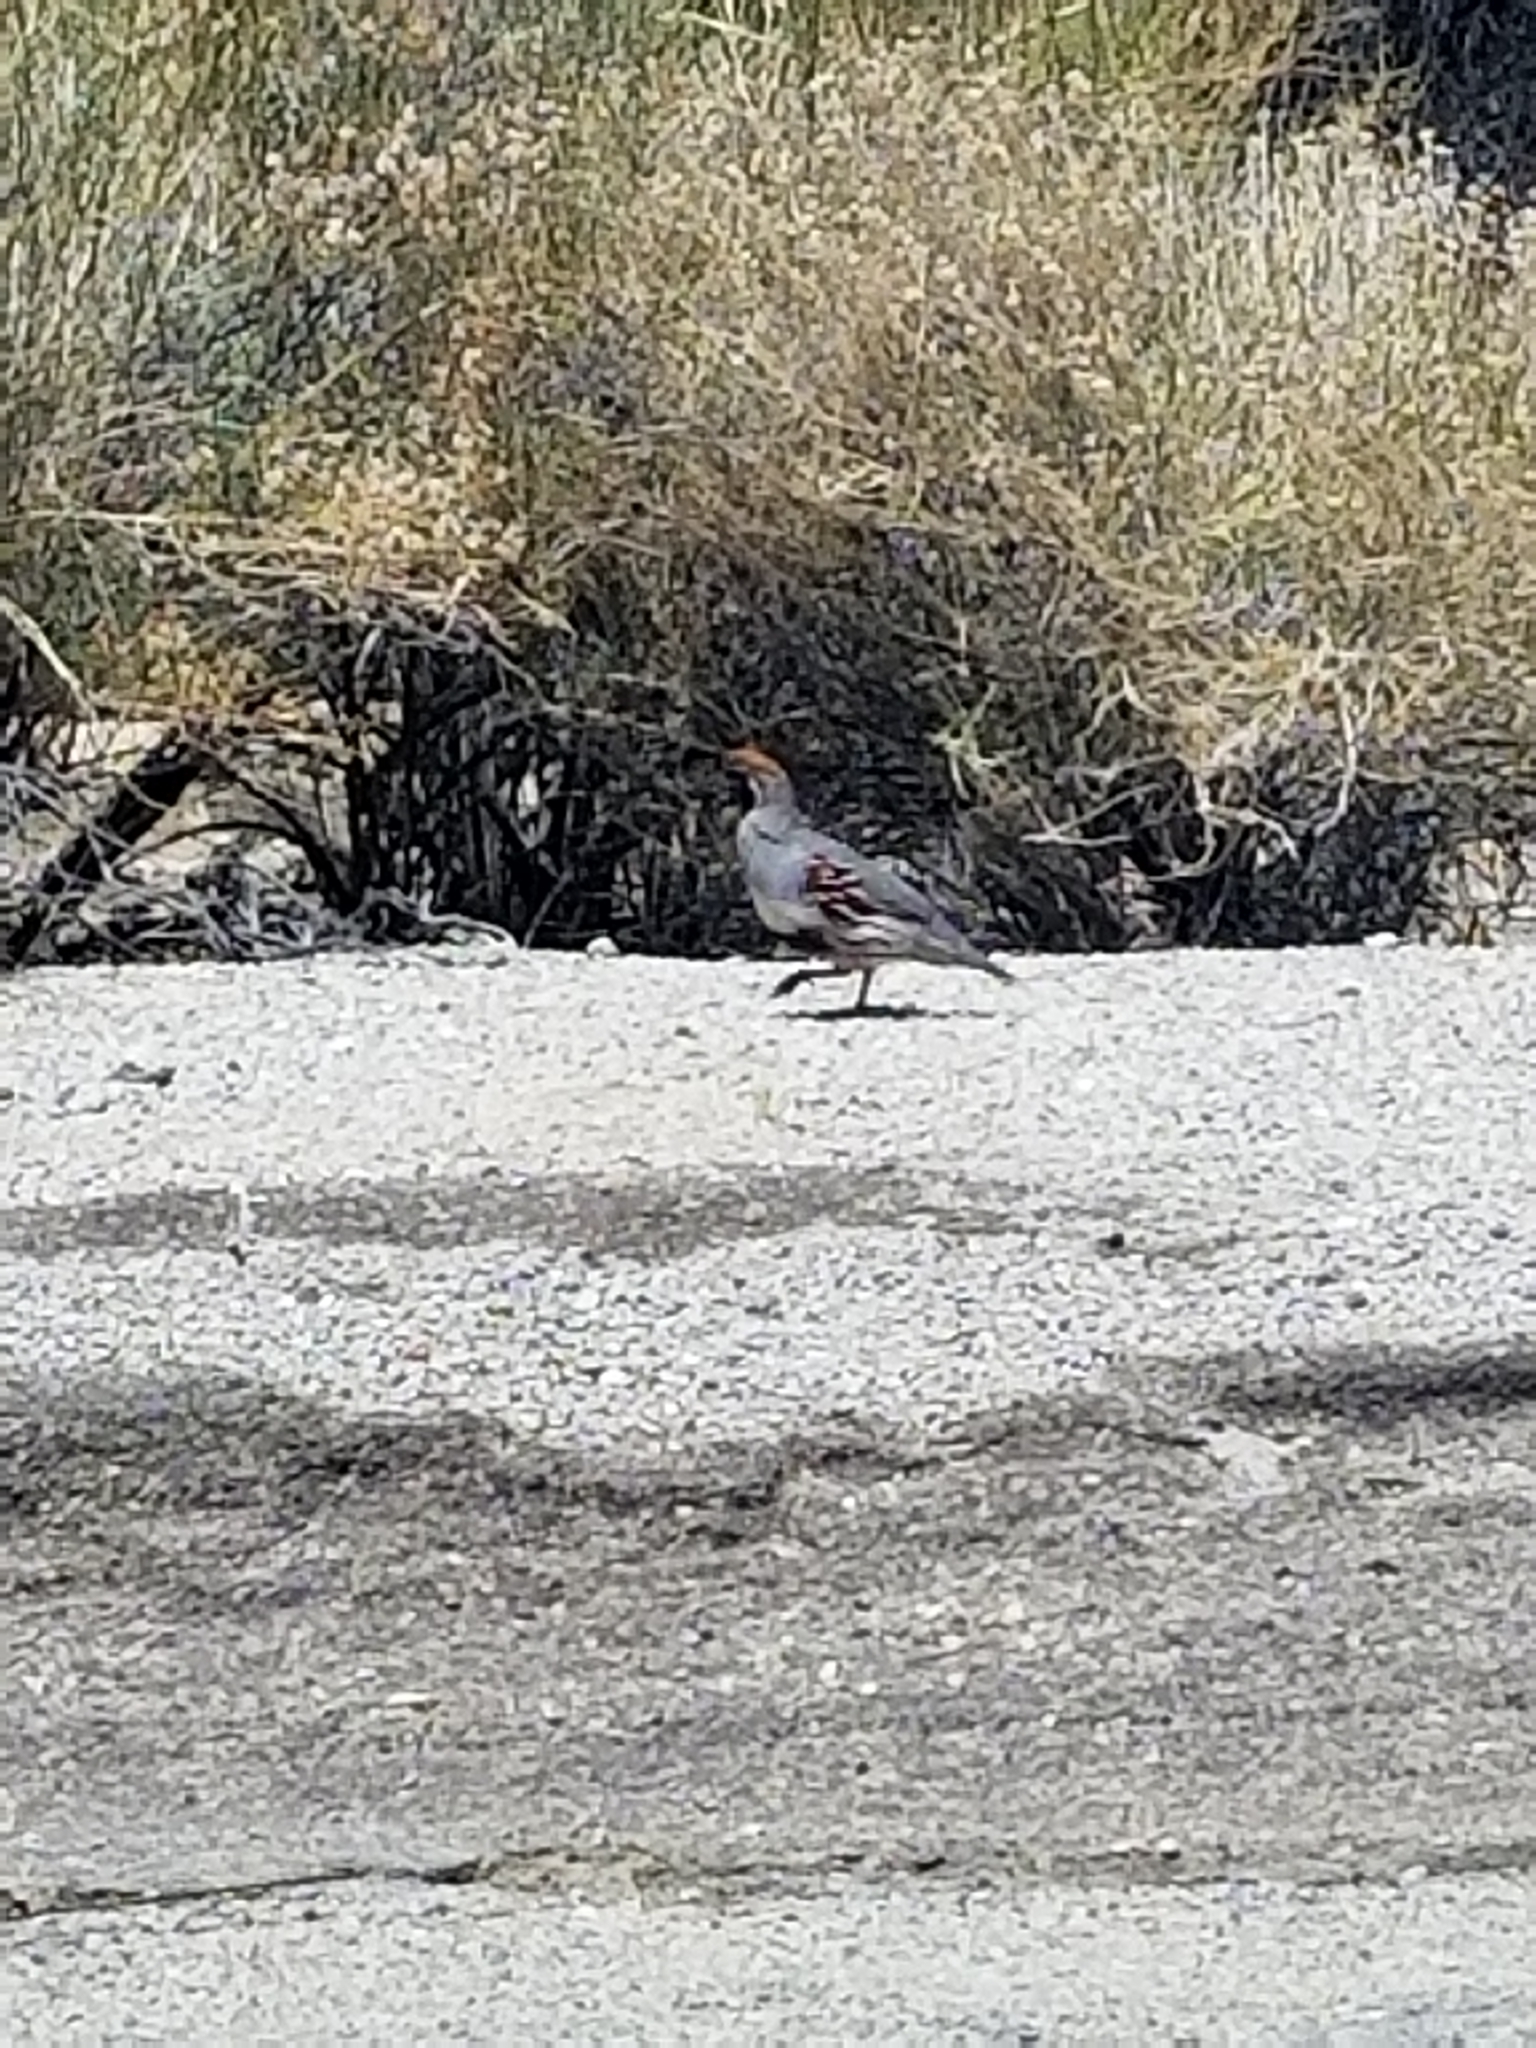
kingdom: Animalia
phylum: Chordata
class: Aves
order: Galliformes
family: Odontophoridae
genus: Callipepla
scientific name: Callipepla gambelii
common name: Gambel's quail
